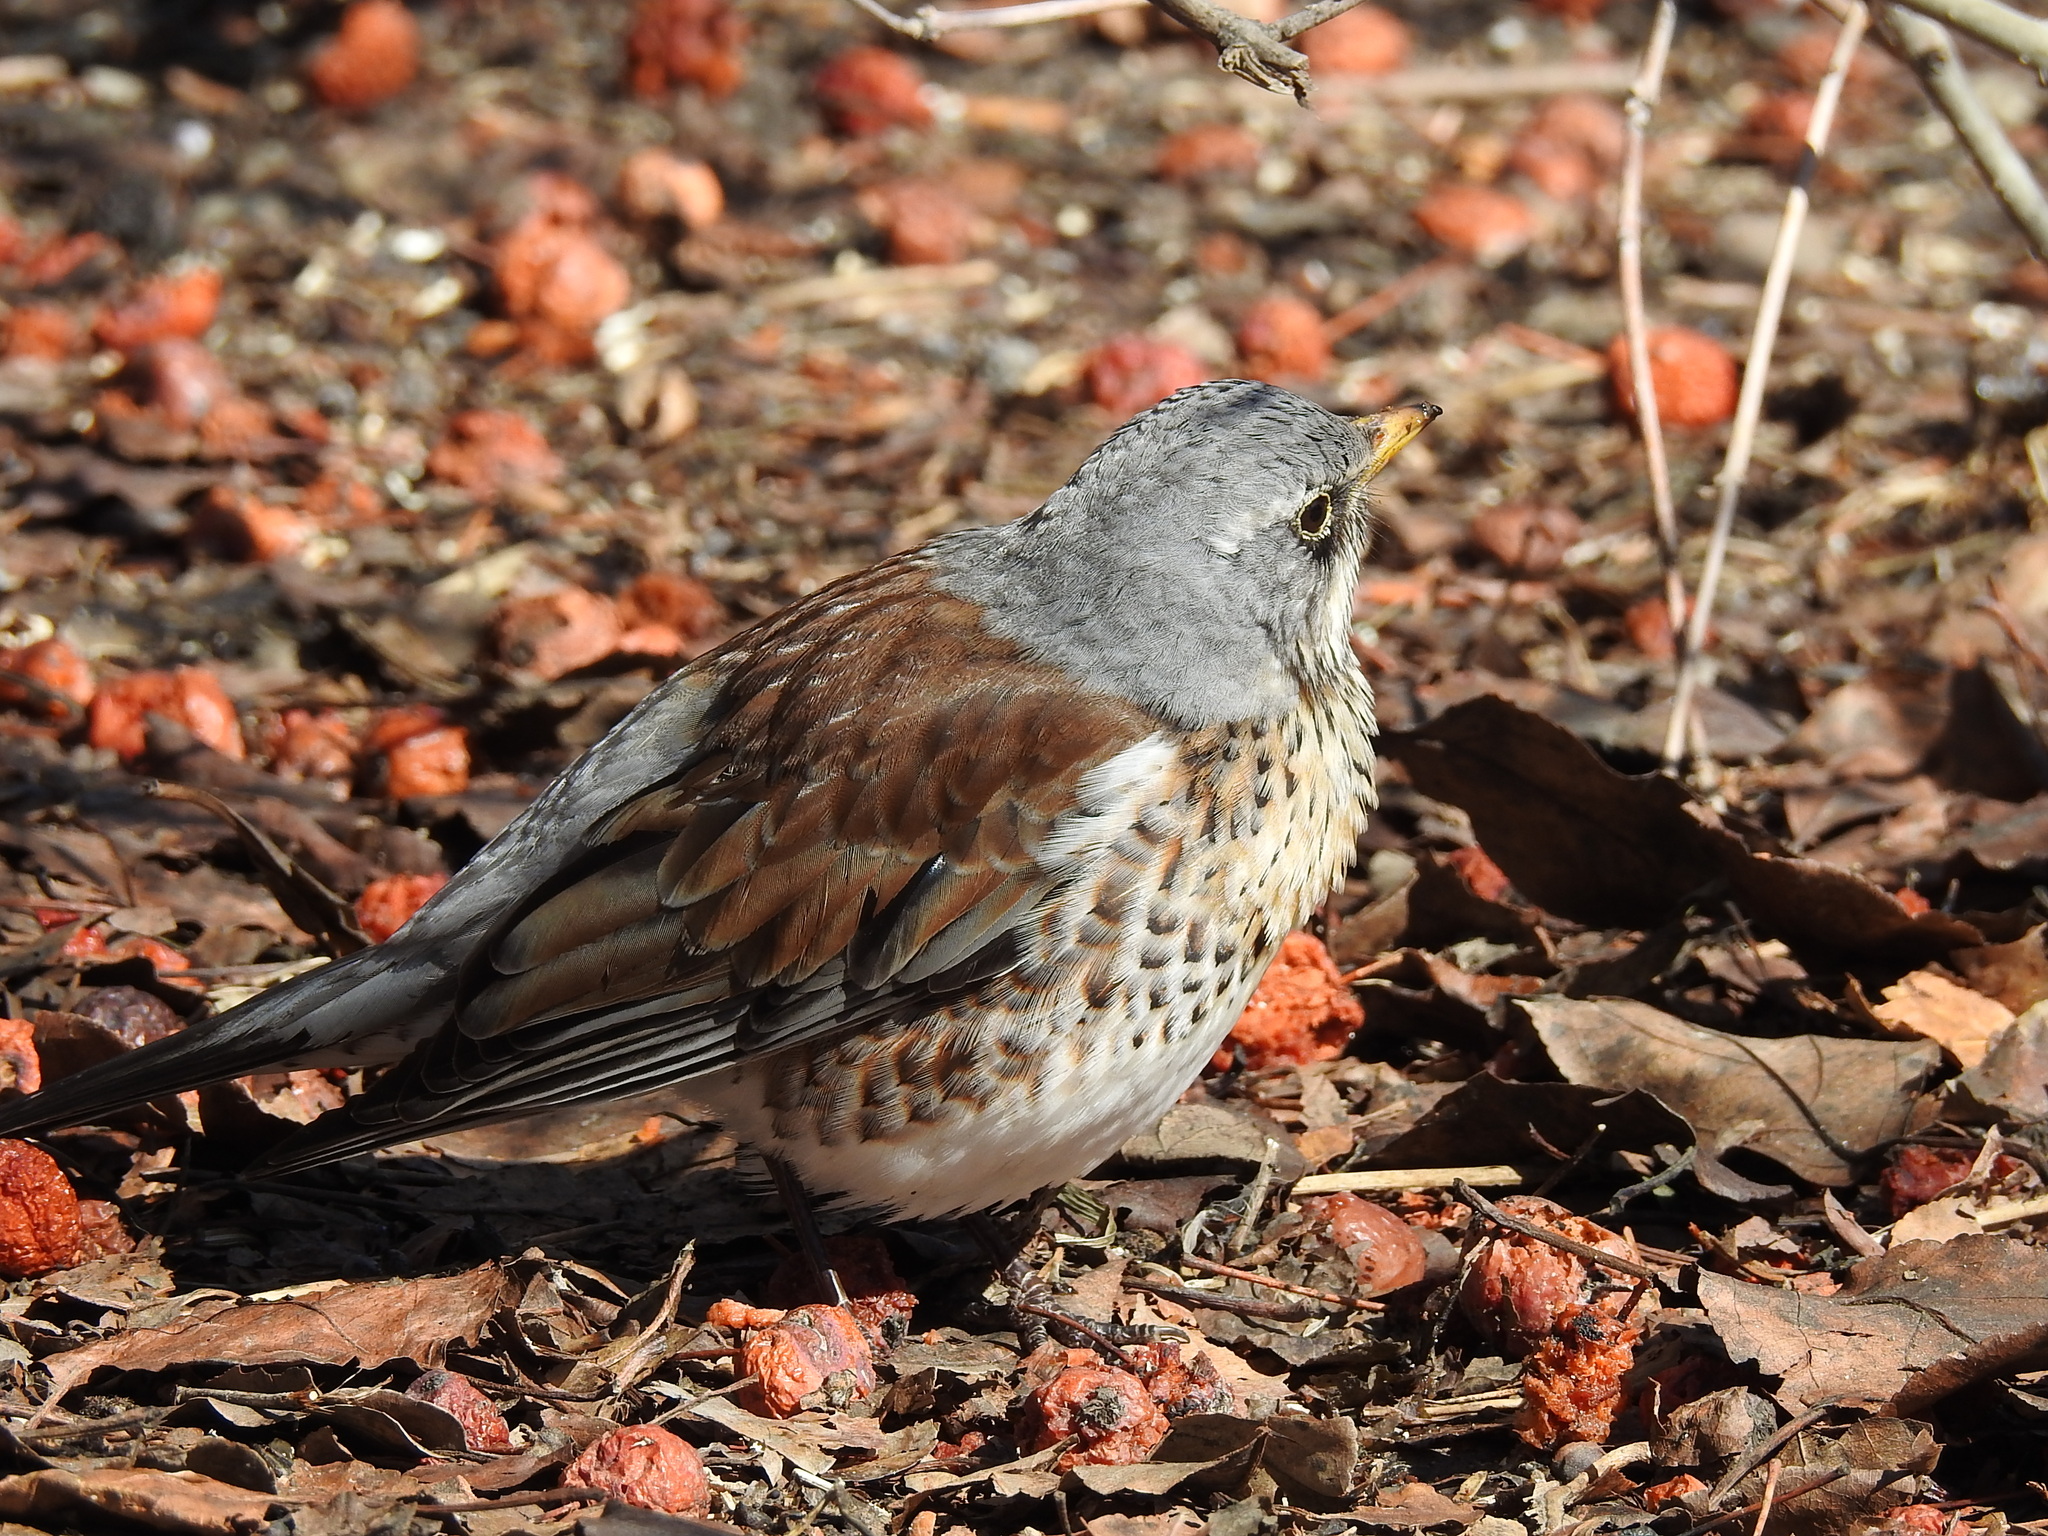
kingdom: Animalia
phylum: Chordata
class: Aves
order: Passeriformes
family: Turdidae
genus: Turdus
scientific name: Turdus pilaris
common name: Fieldfare
